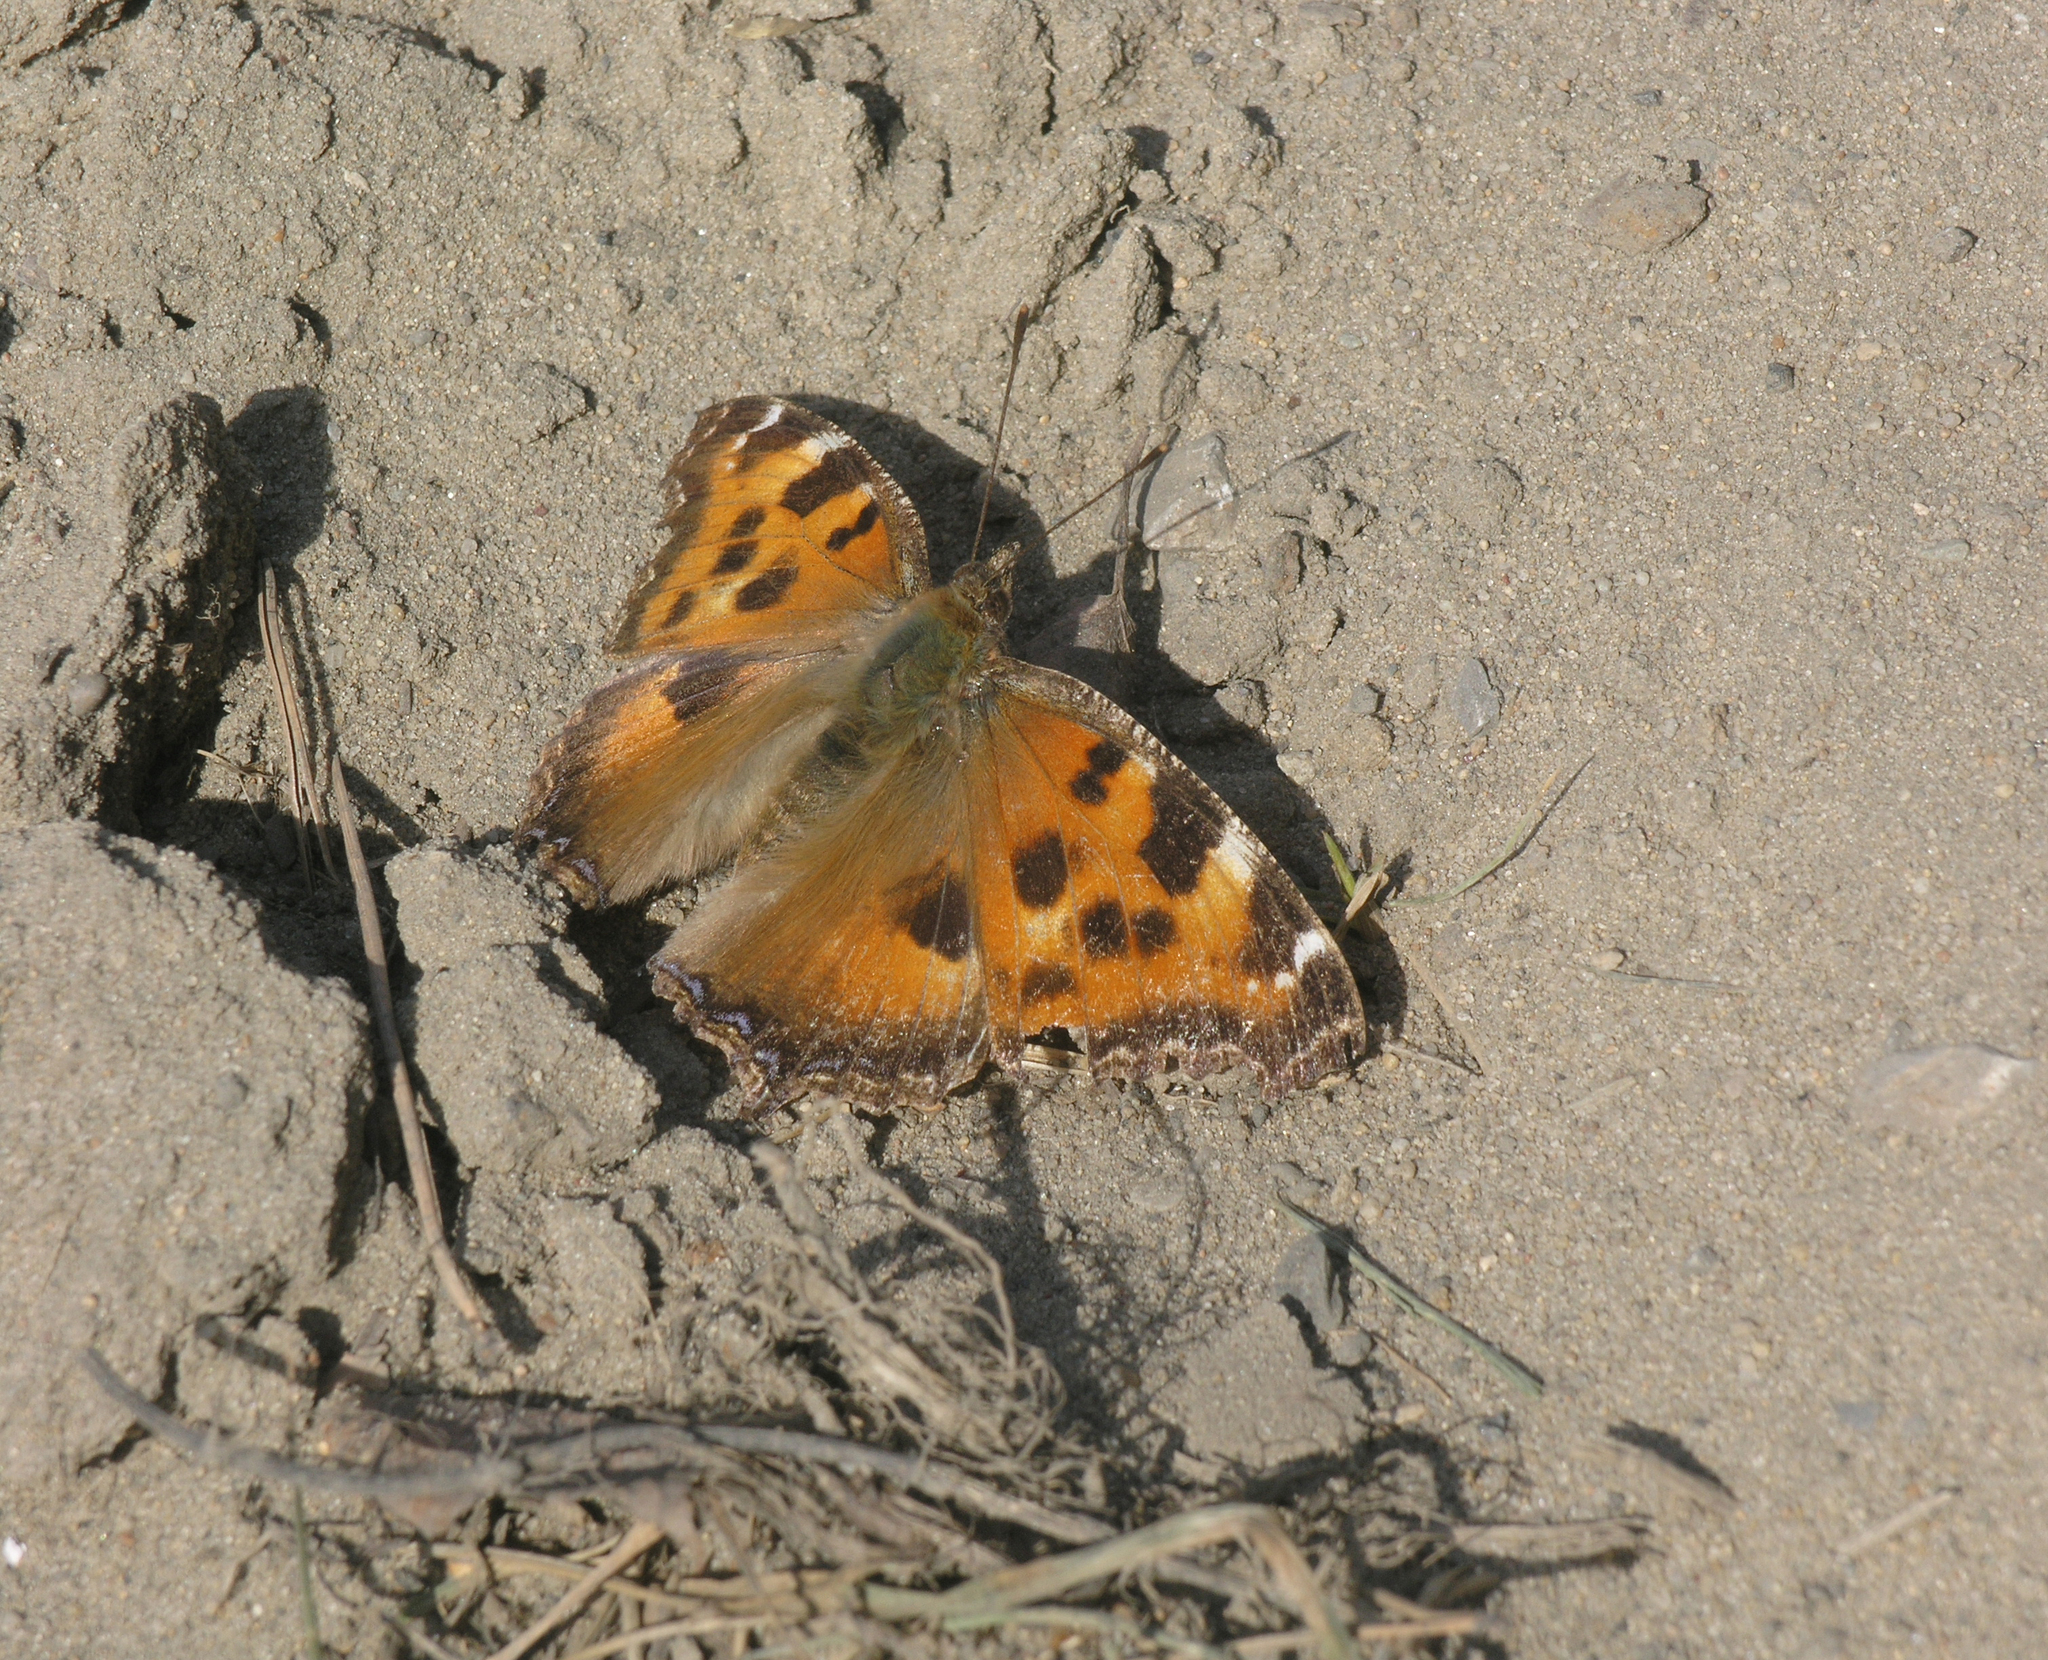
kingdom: Animalia
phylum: Arthropoda
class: Insecta
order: Lepidoptera
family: Nymphalidae
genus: Nymphalis
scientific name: Nymphalis xanthomelas
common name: Scarce tortoiseshell
